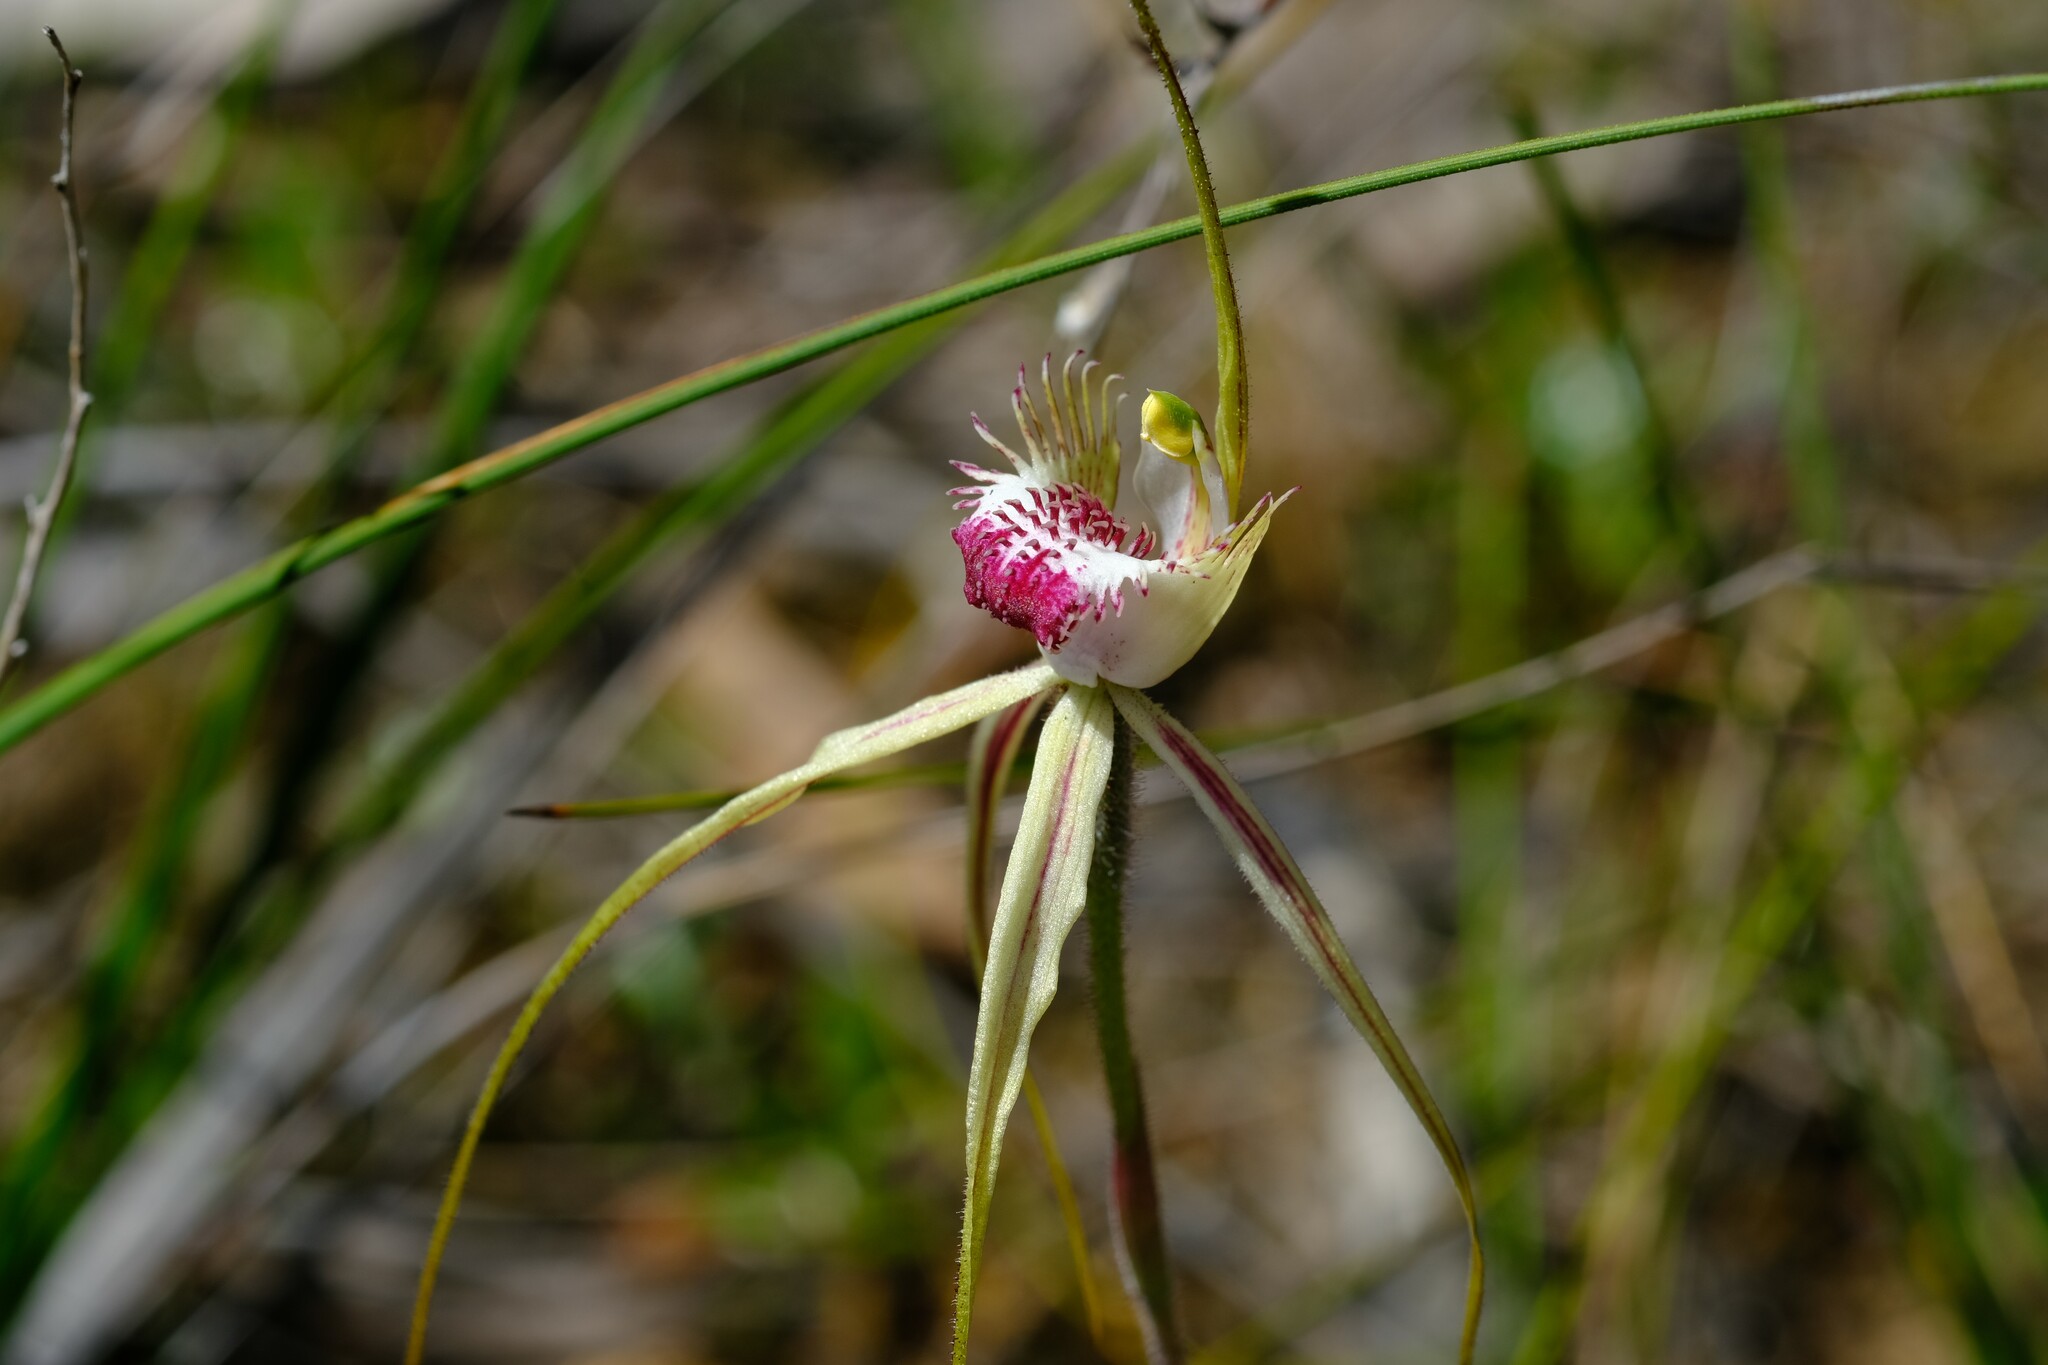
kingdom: Plantae
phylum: Tracheophyta
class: Liliopsida
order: Asparagales
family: Orchidaceae
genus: Caladenia
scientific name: Caladenia
